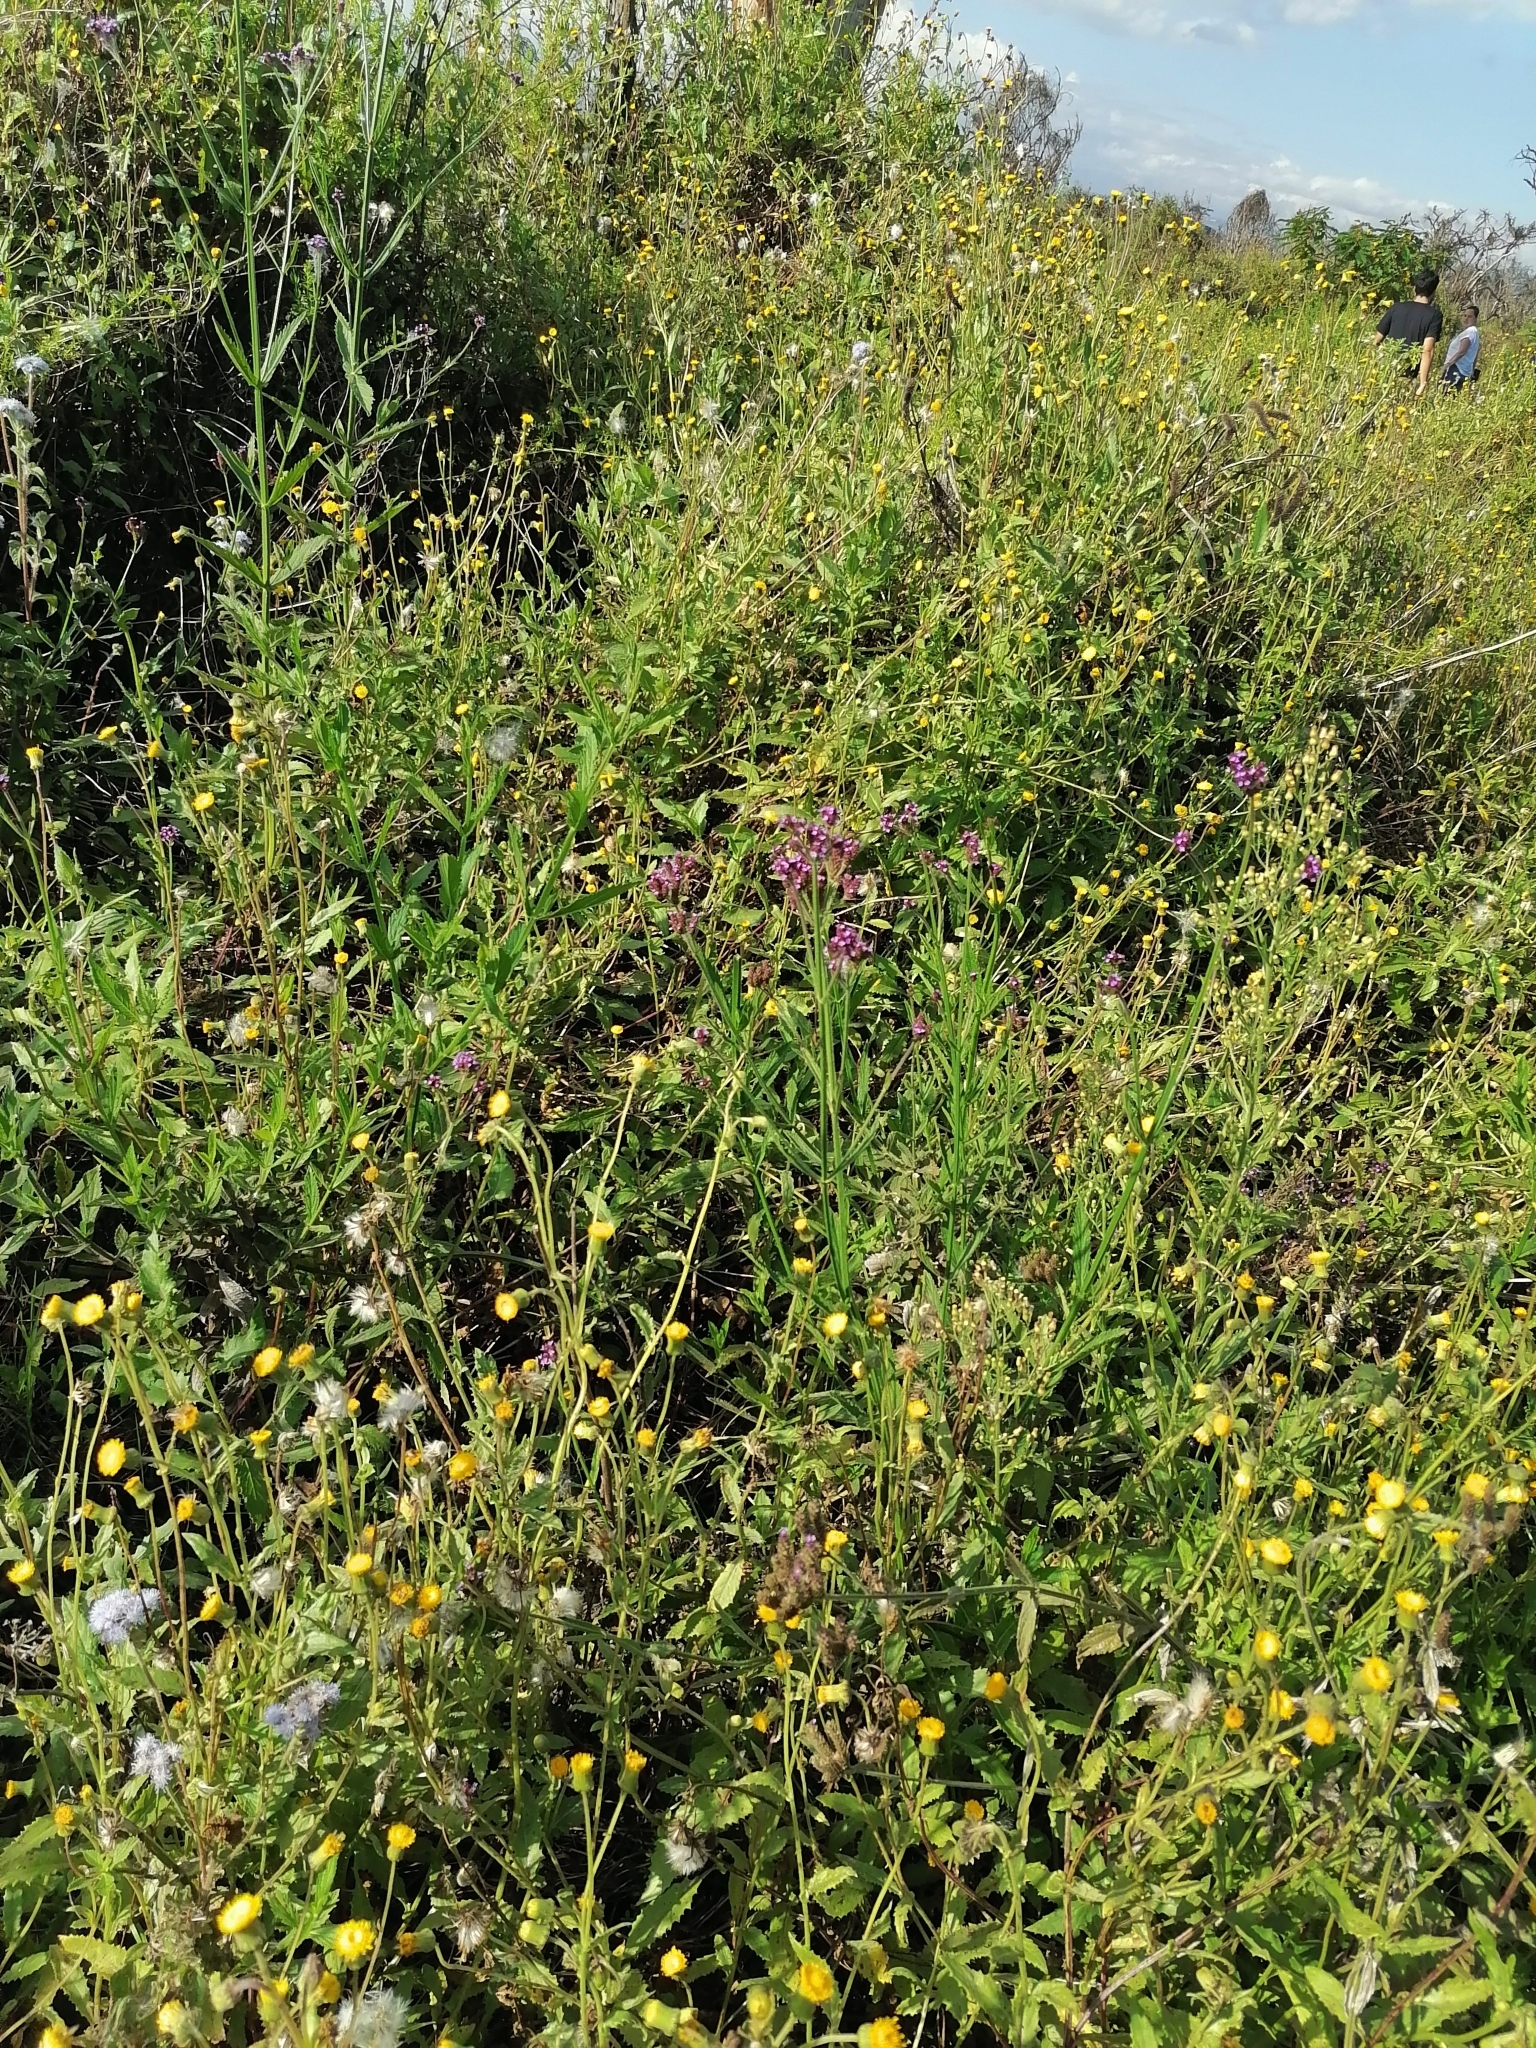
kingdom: Plantae
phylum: Tracheophyta
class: Magnoliopsida
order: Lamiales
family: Verbenaceae
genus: Verbena
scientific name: Verbena bonariensis
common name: Purpletop vervain
